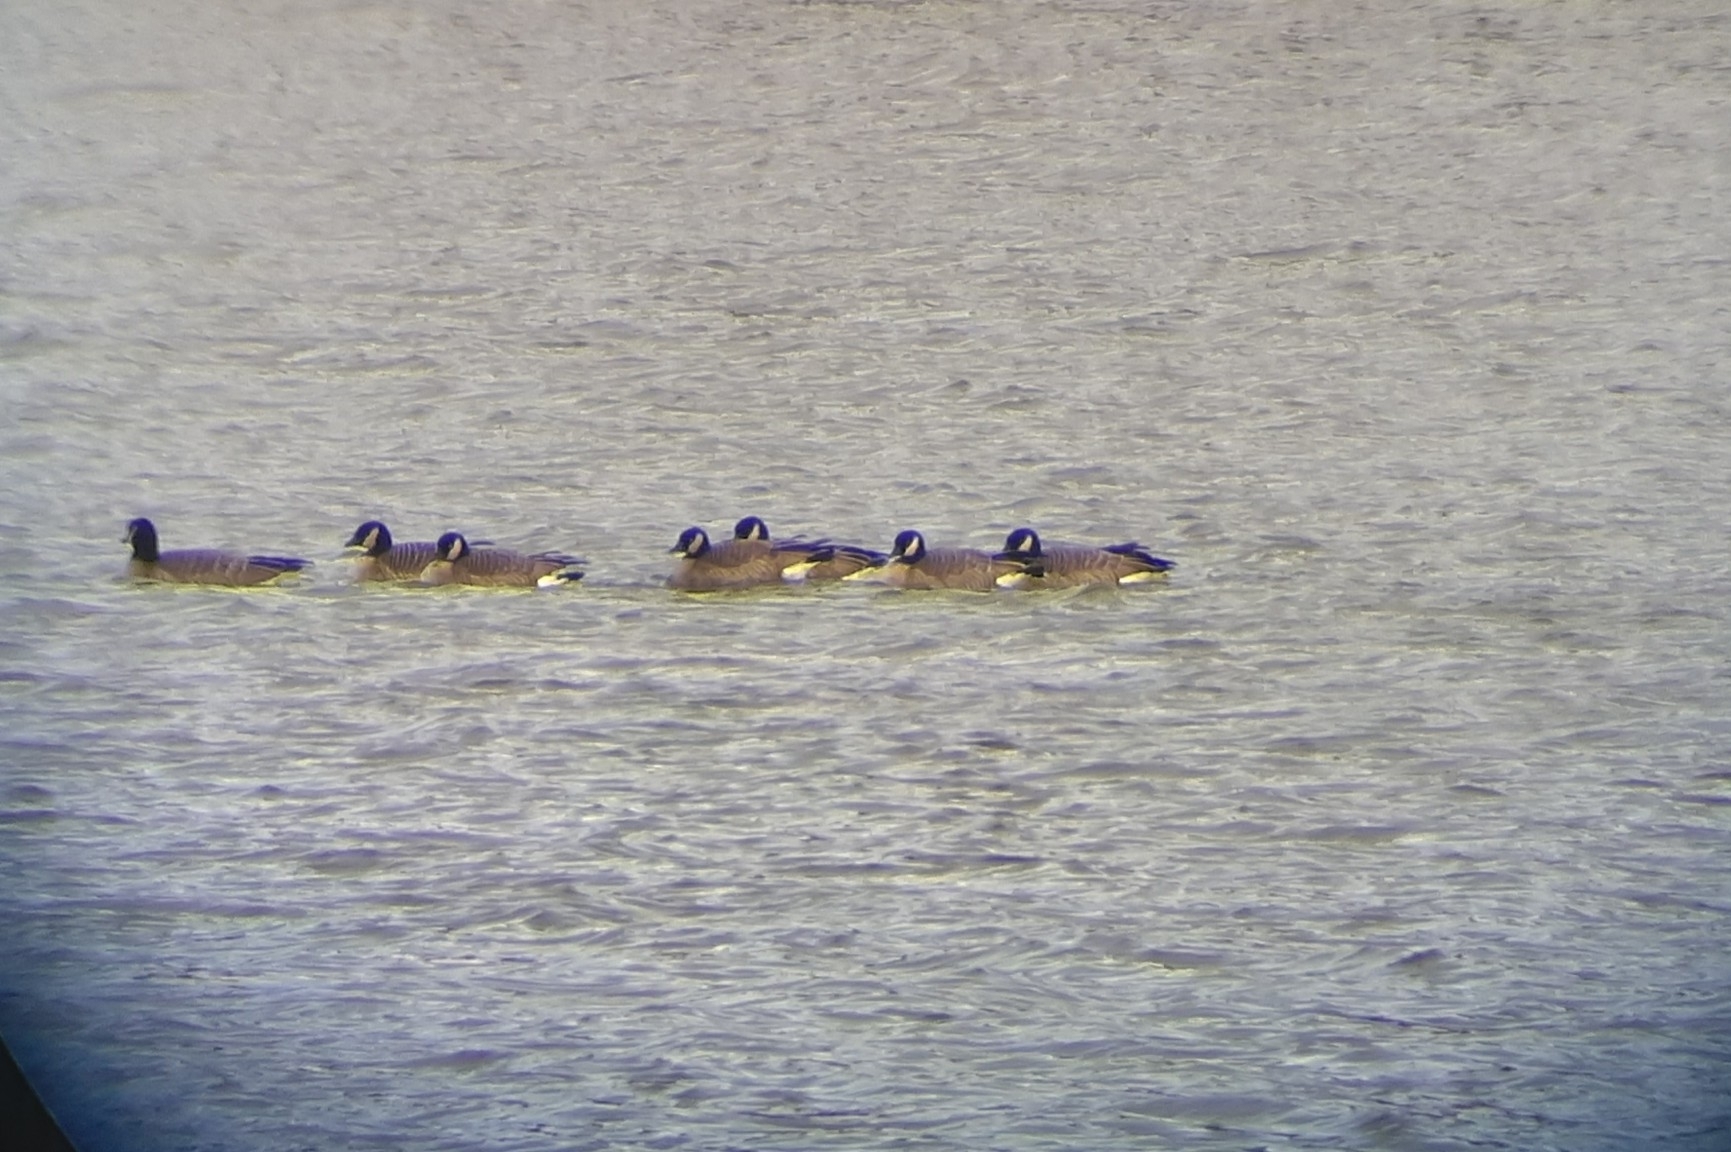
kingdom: Animalia
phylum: Chordata
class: Aves
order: Anseriformes
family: Anatidae
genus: Branta
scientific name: Branta hutchinsii
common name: Cackling goose
